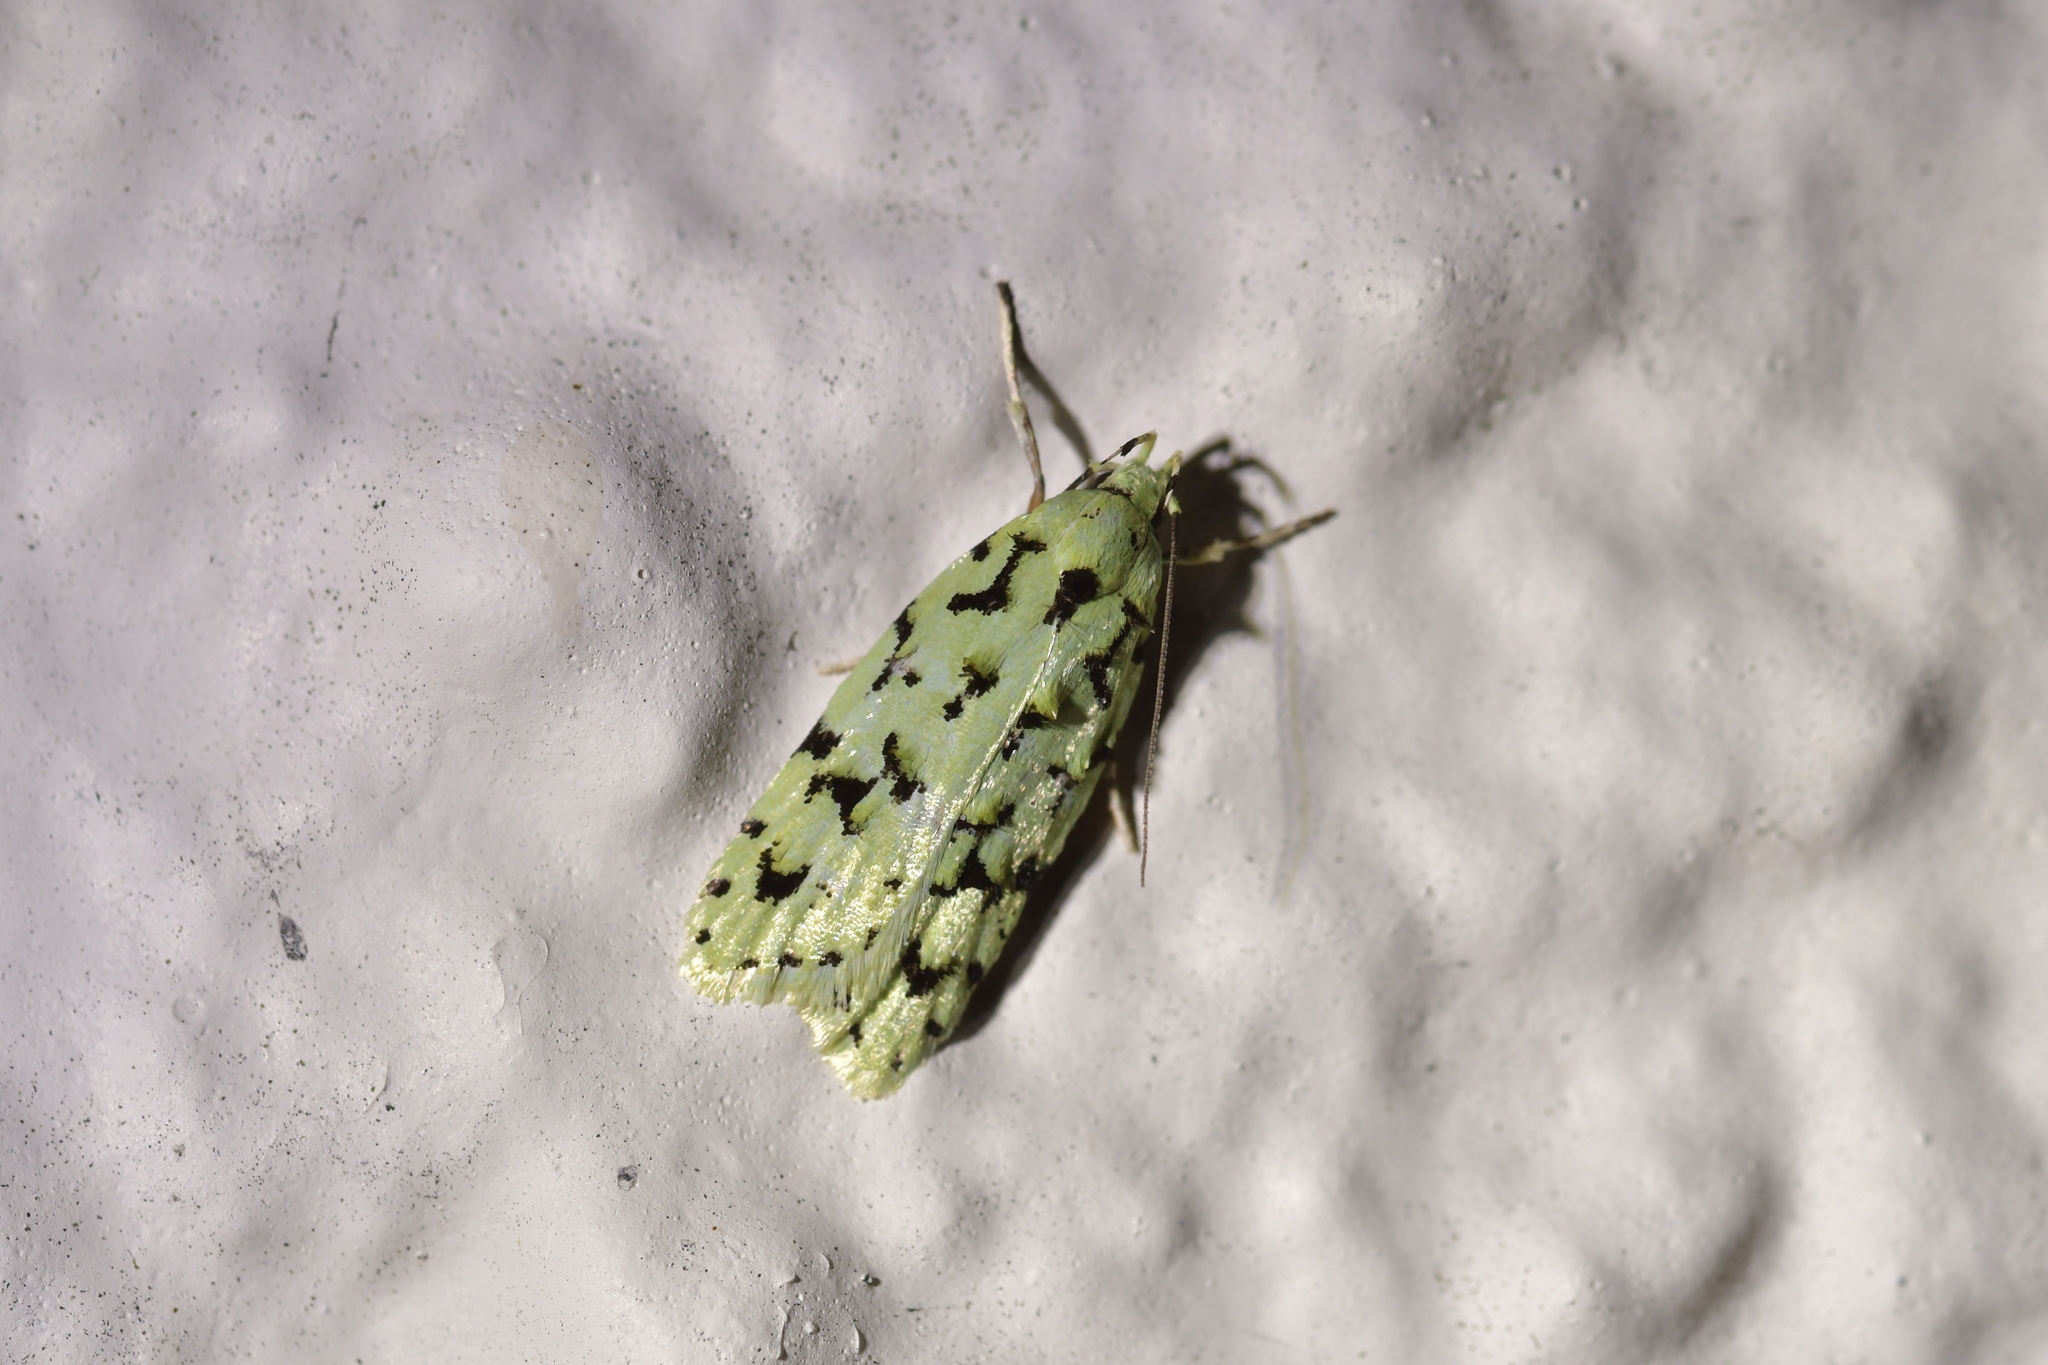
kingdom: Animalia
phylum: Arthropoda
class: Insecta
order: Lepidoptera
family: Oecophoridae
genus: Izatha
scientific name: Izatha huttoni
